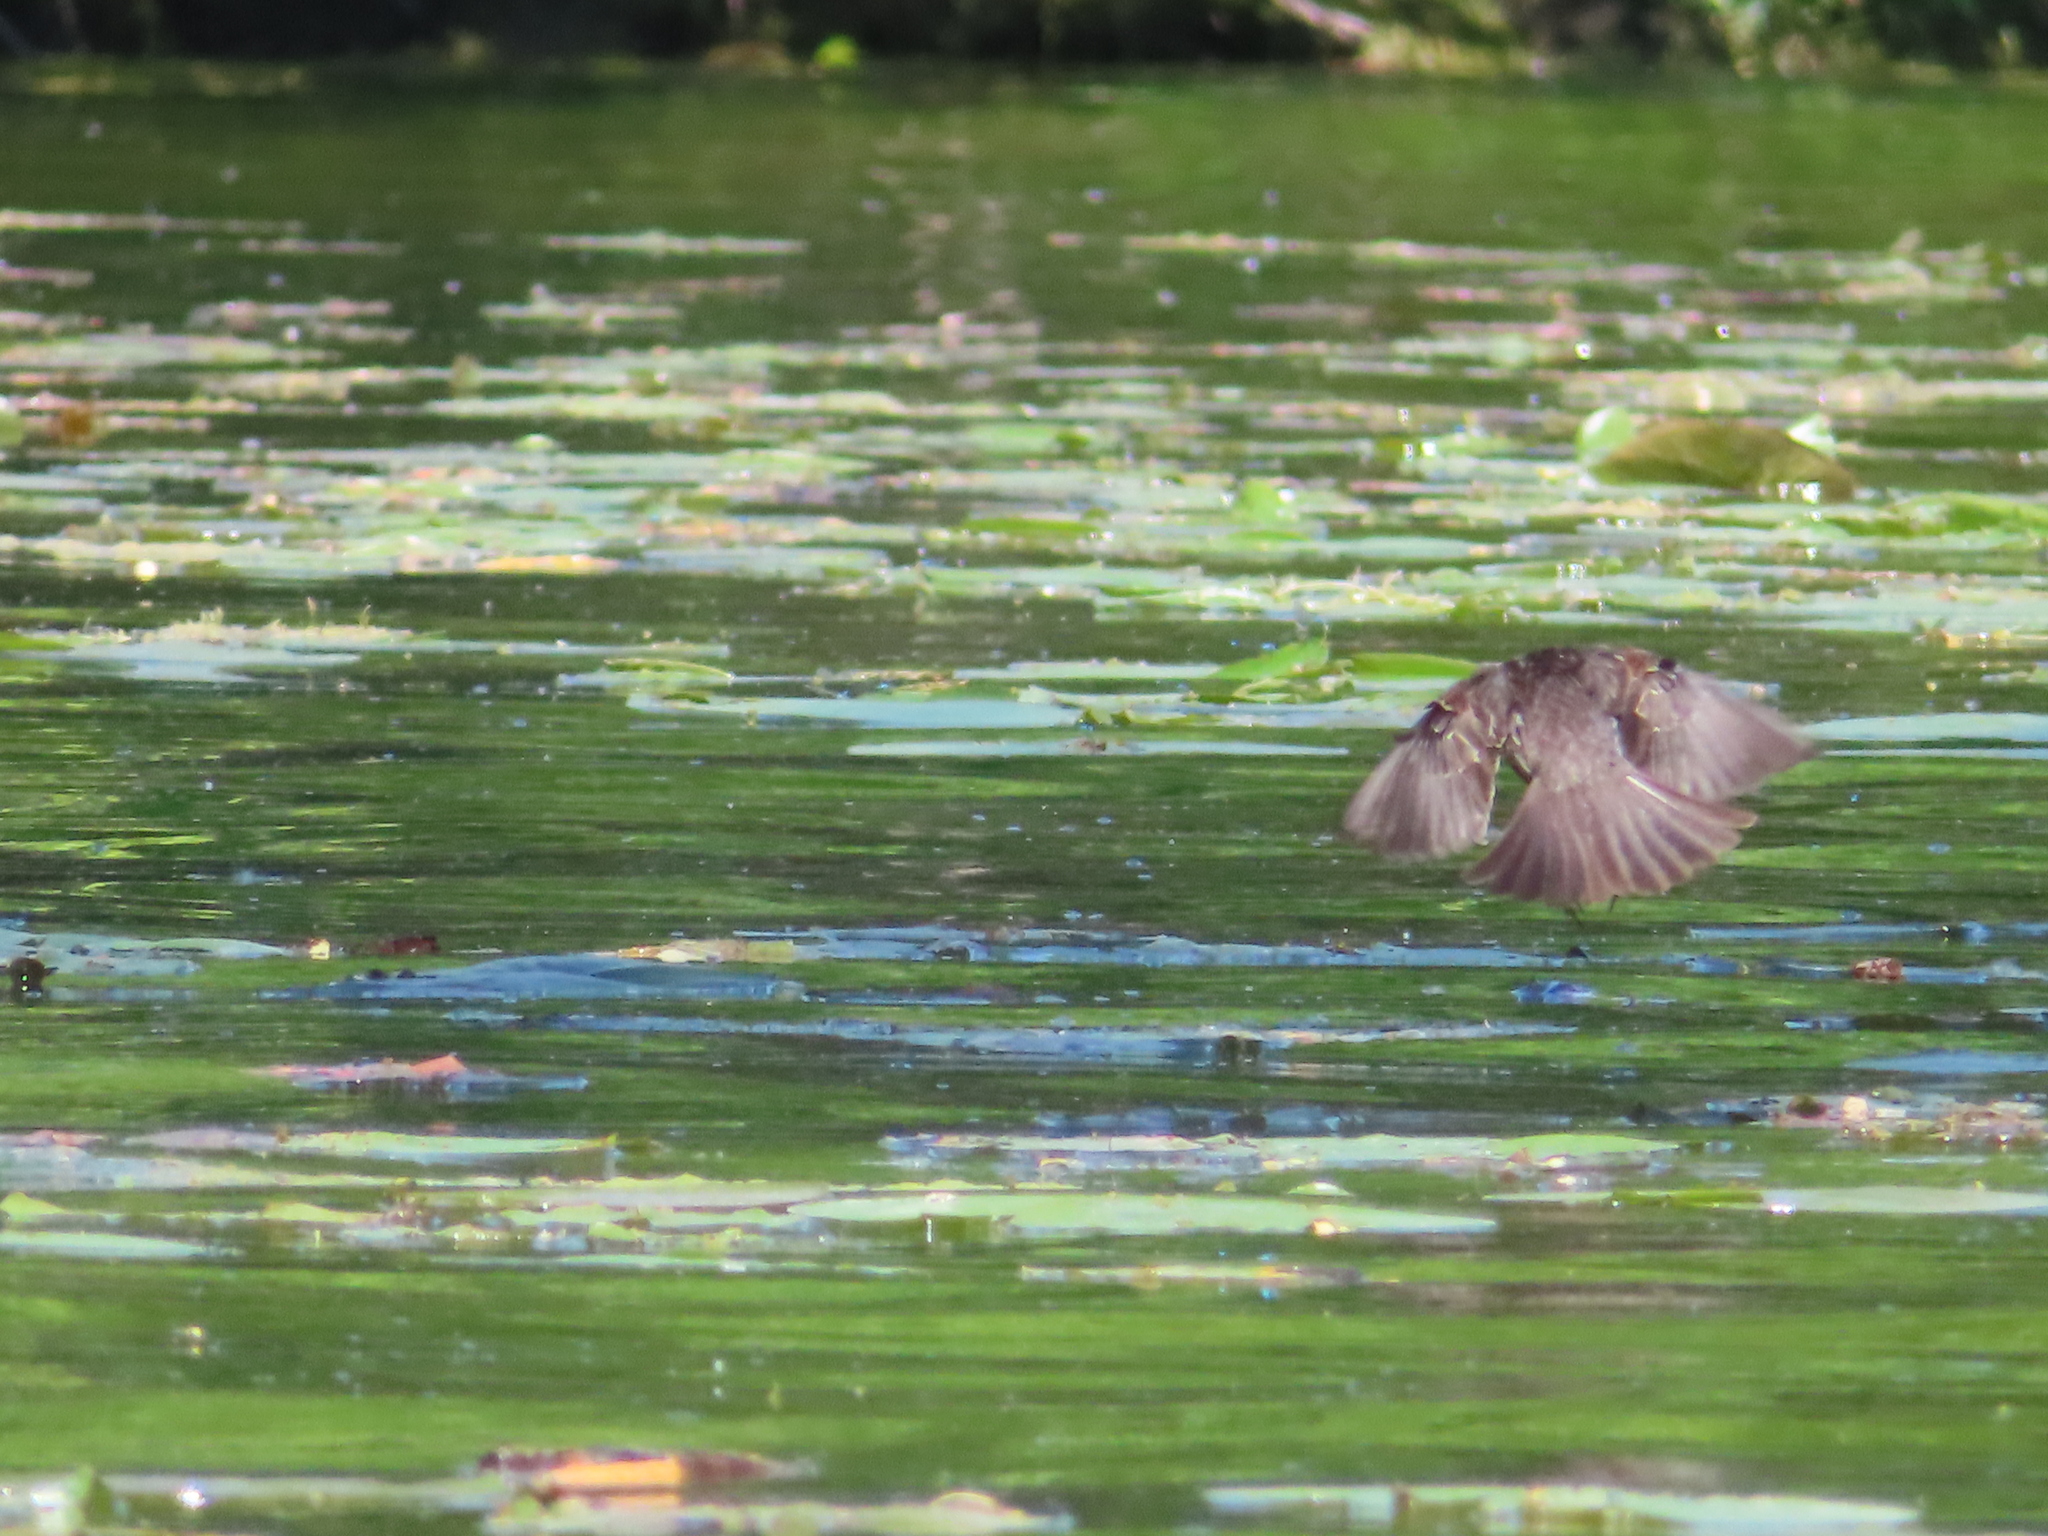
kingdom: Animalia
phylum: Chordata
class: Aves
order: Passeriformes
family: Icteridae
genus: Agelaius
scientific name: Agelaius phoeniceus
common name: Red-winged blackbird
